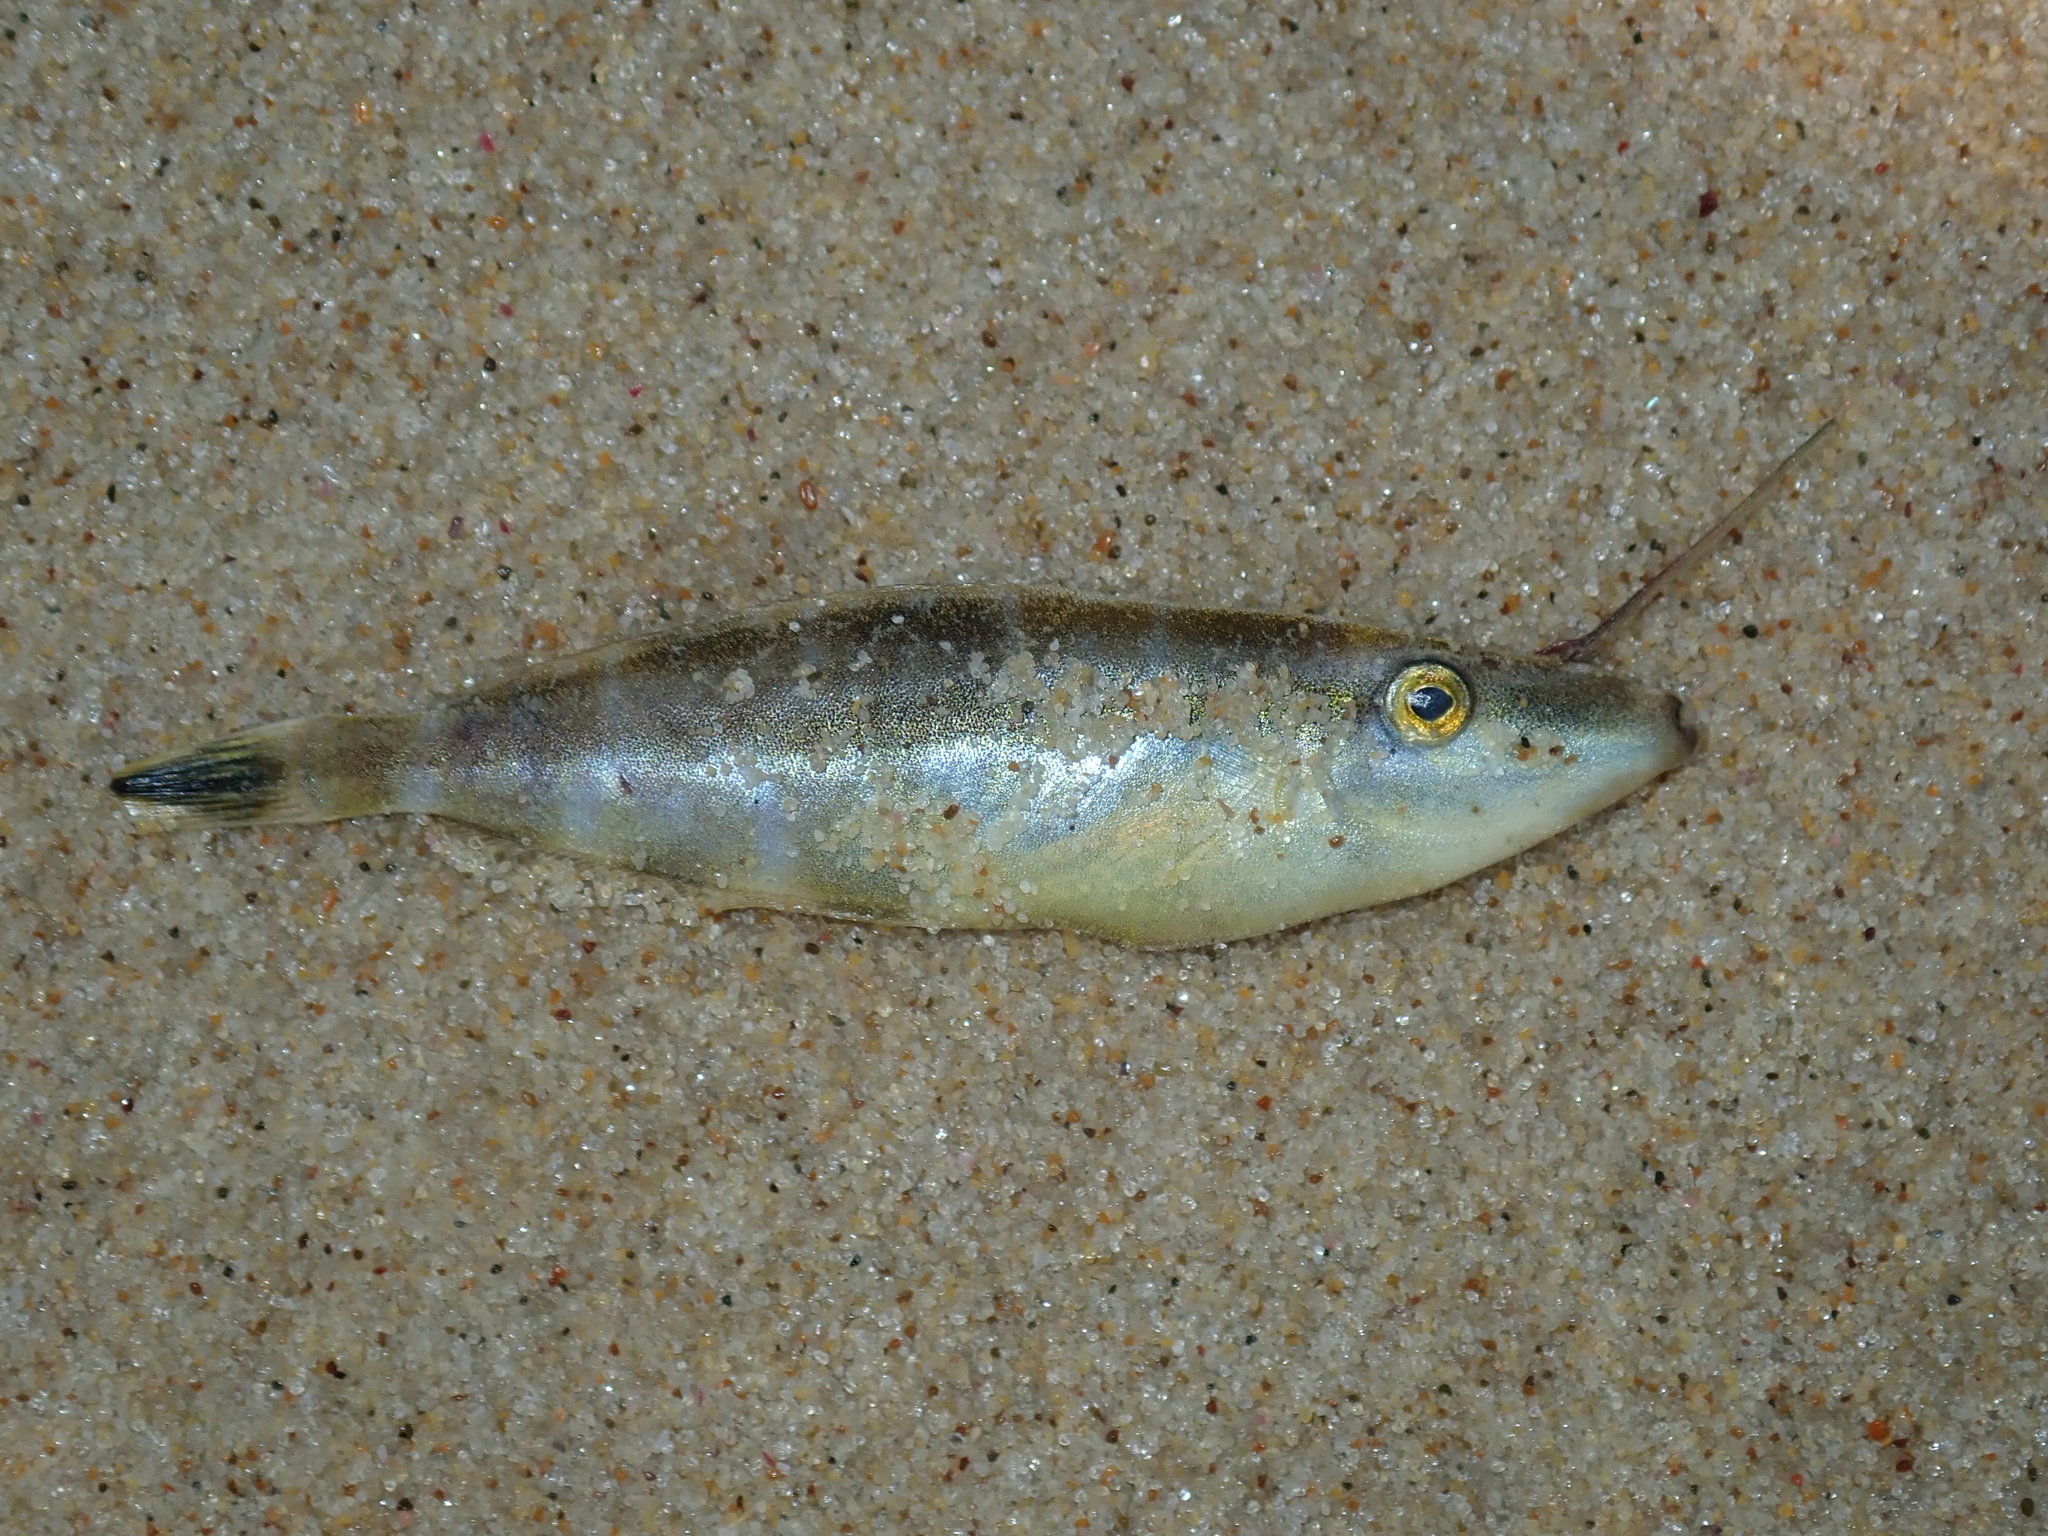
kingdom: Animalia
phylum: Chordata
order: Tetraodontiformes
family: Monacanthidae
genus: Pseudalutarius
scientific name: Pseudalutarius nasicornis
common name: Rhinoceros filefish
